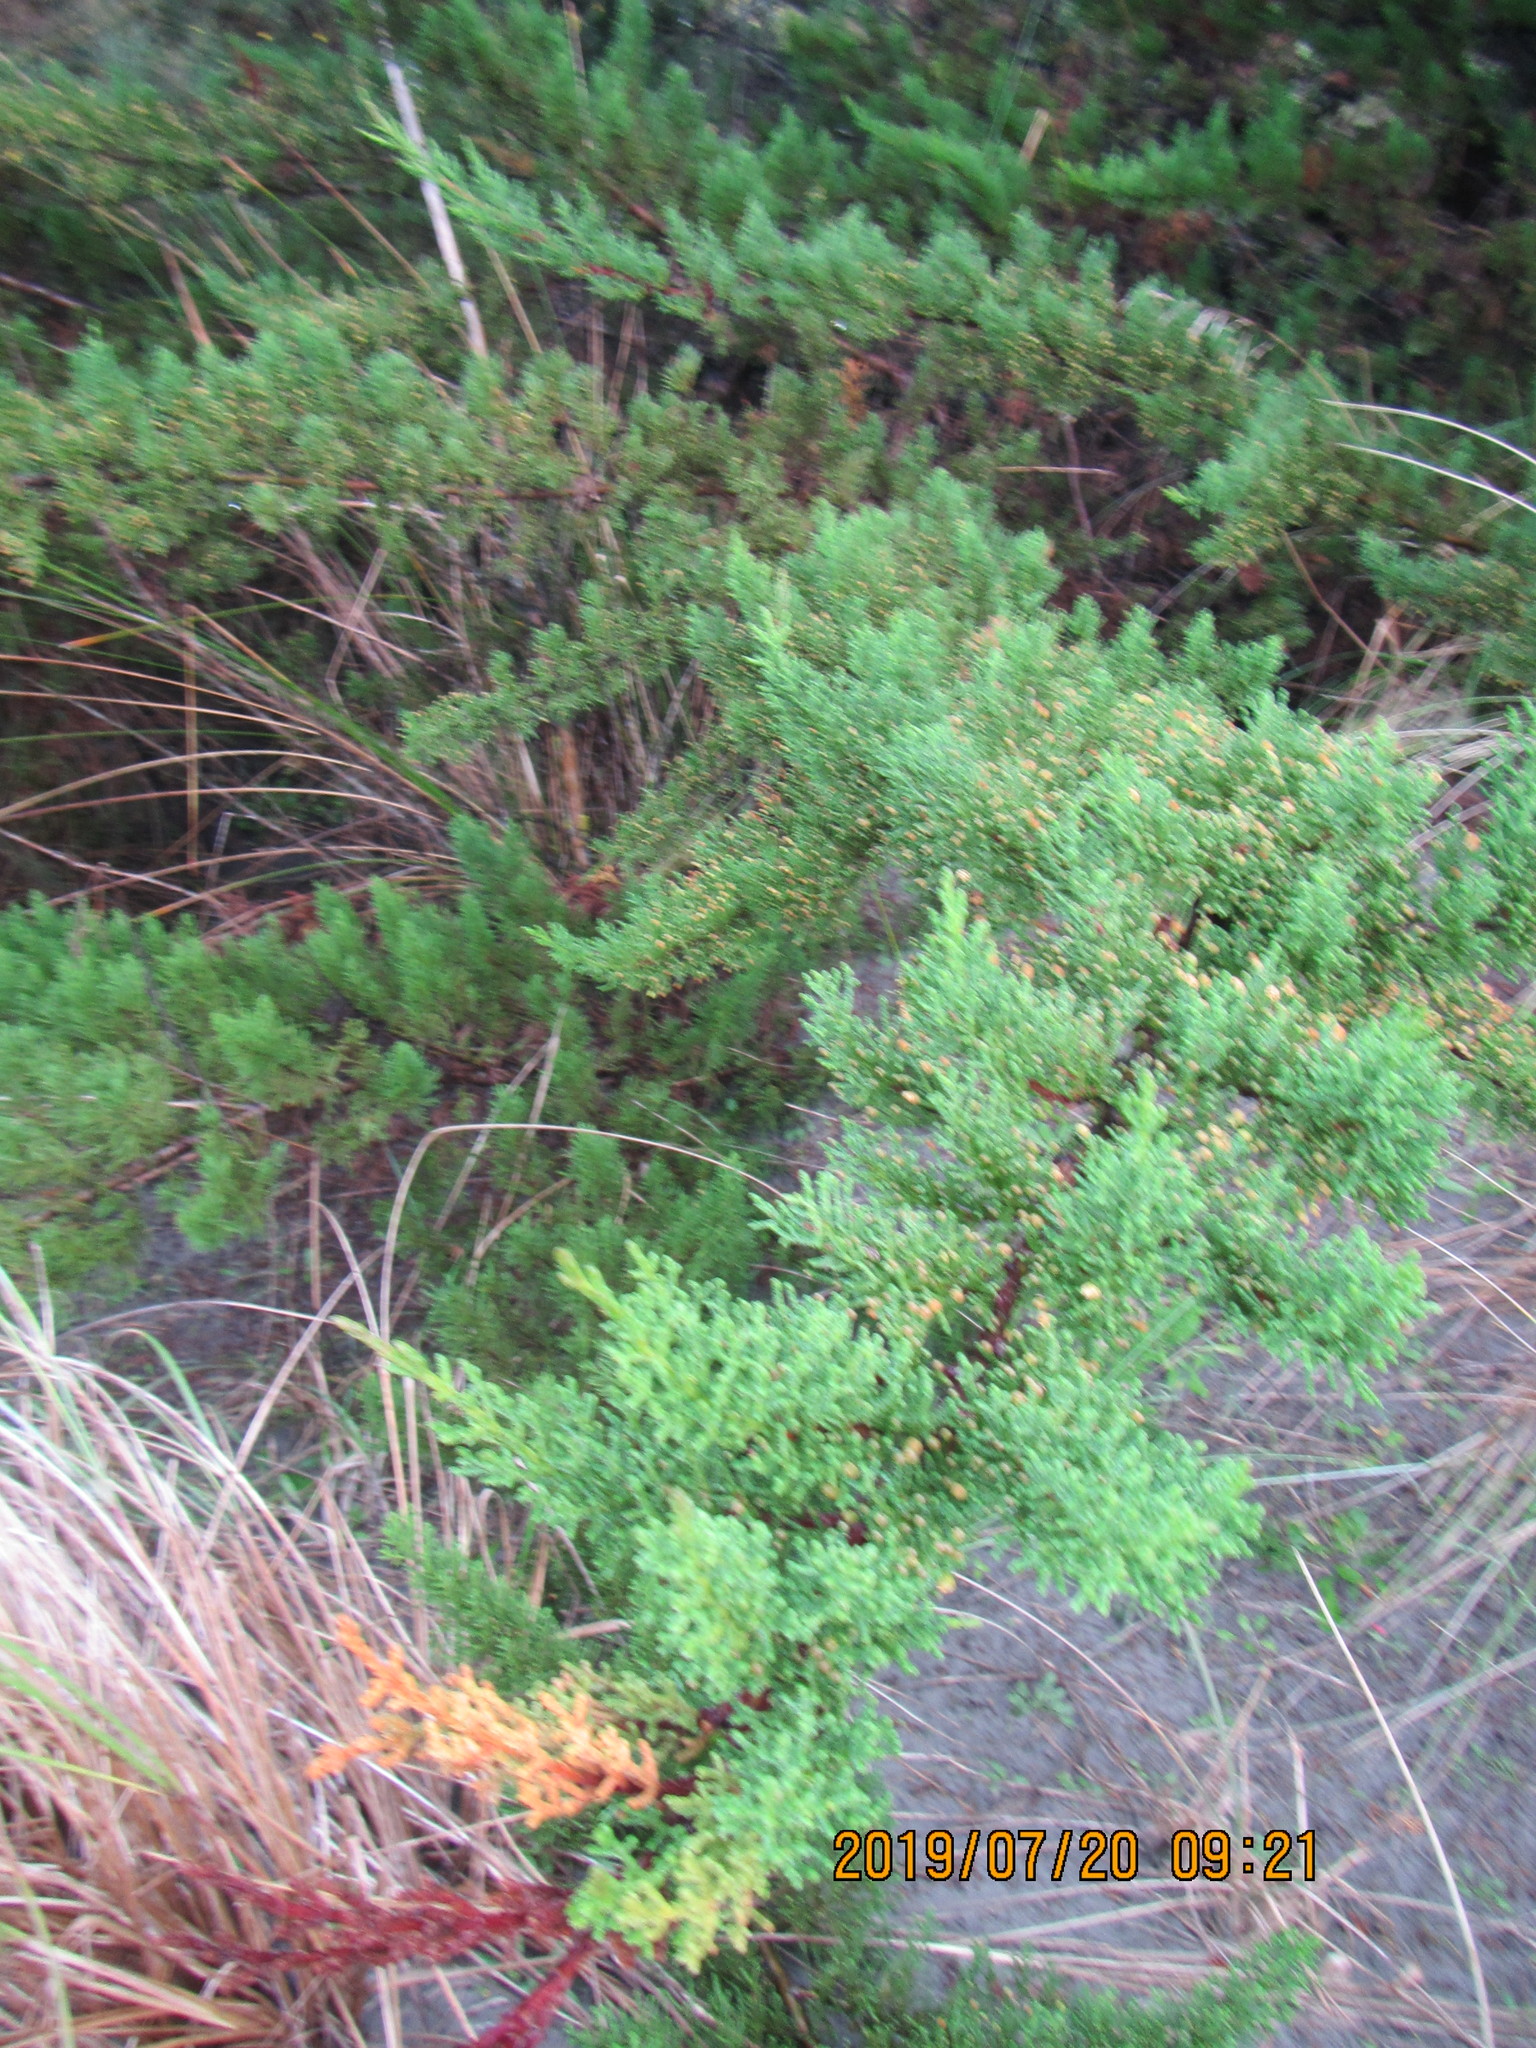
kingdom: Plantae
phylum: Tracheophyta
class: Pinopsida
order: Pinales
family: Cupressaceae
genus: Cupressus
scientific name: Cupressus macrocarpa
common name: Monterey cypress
